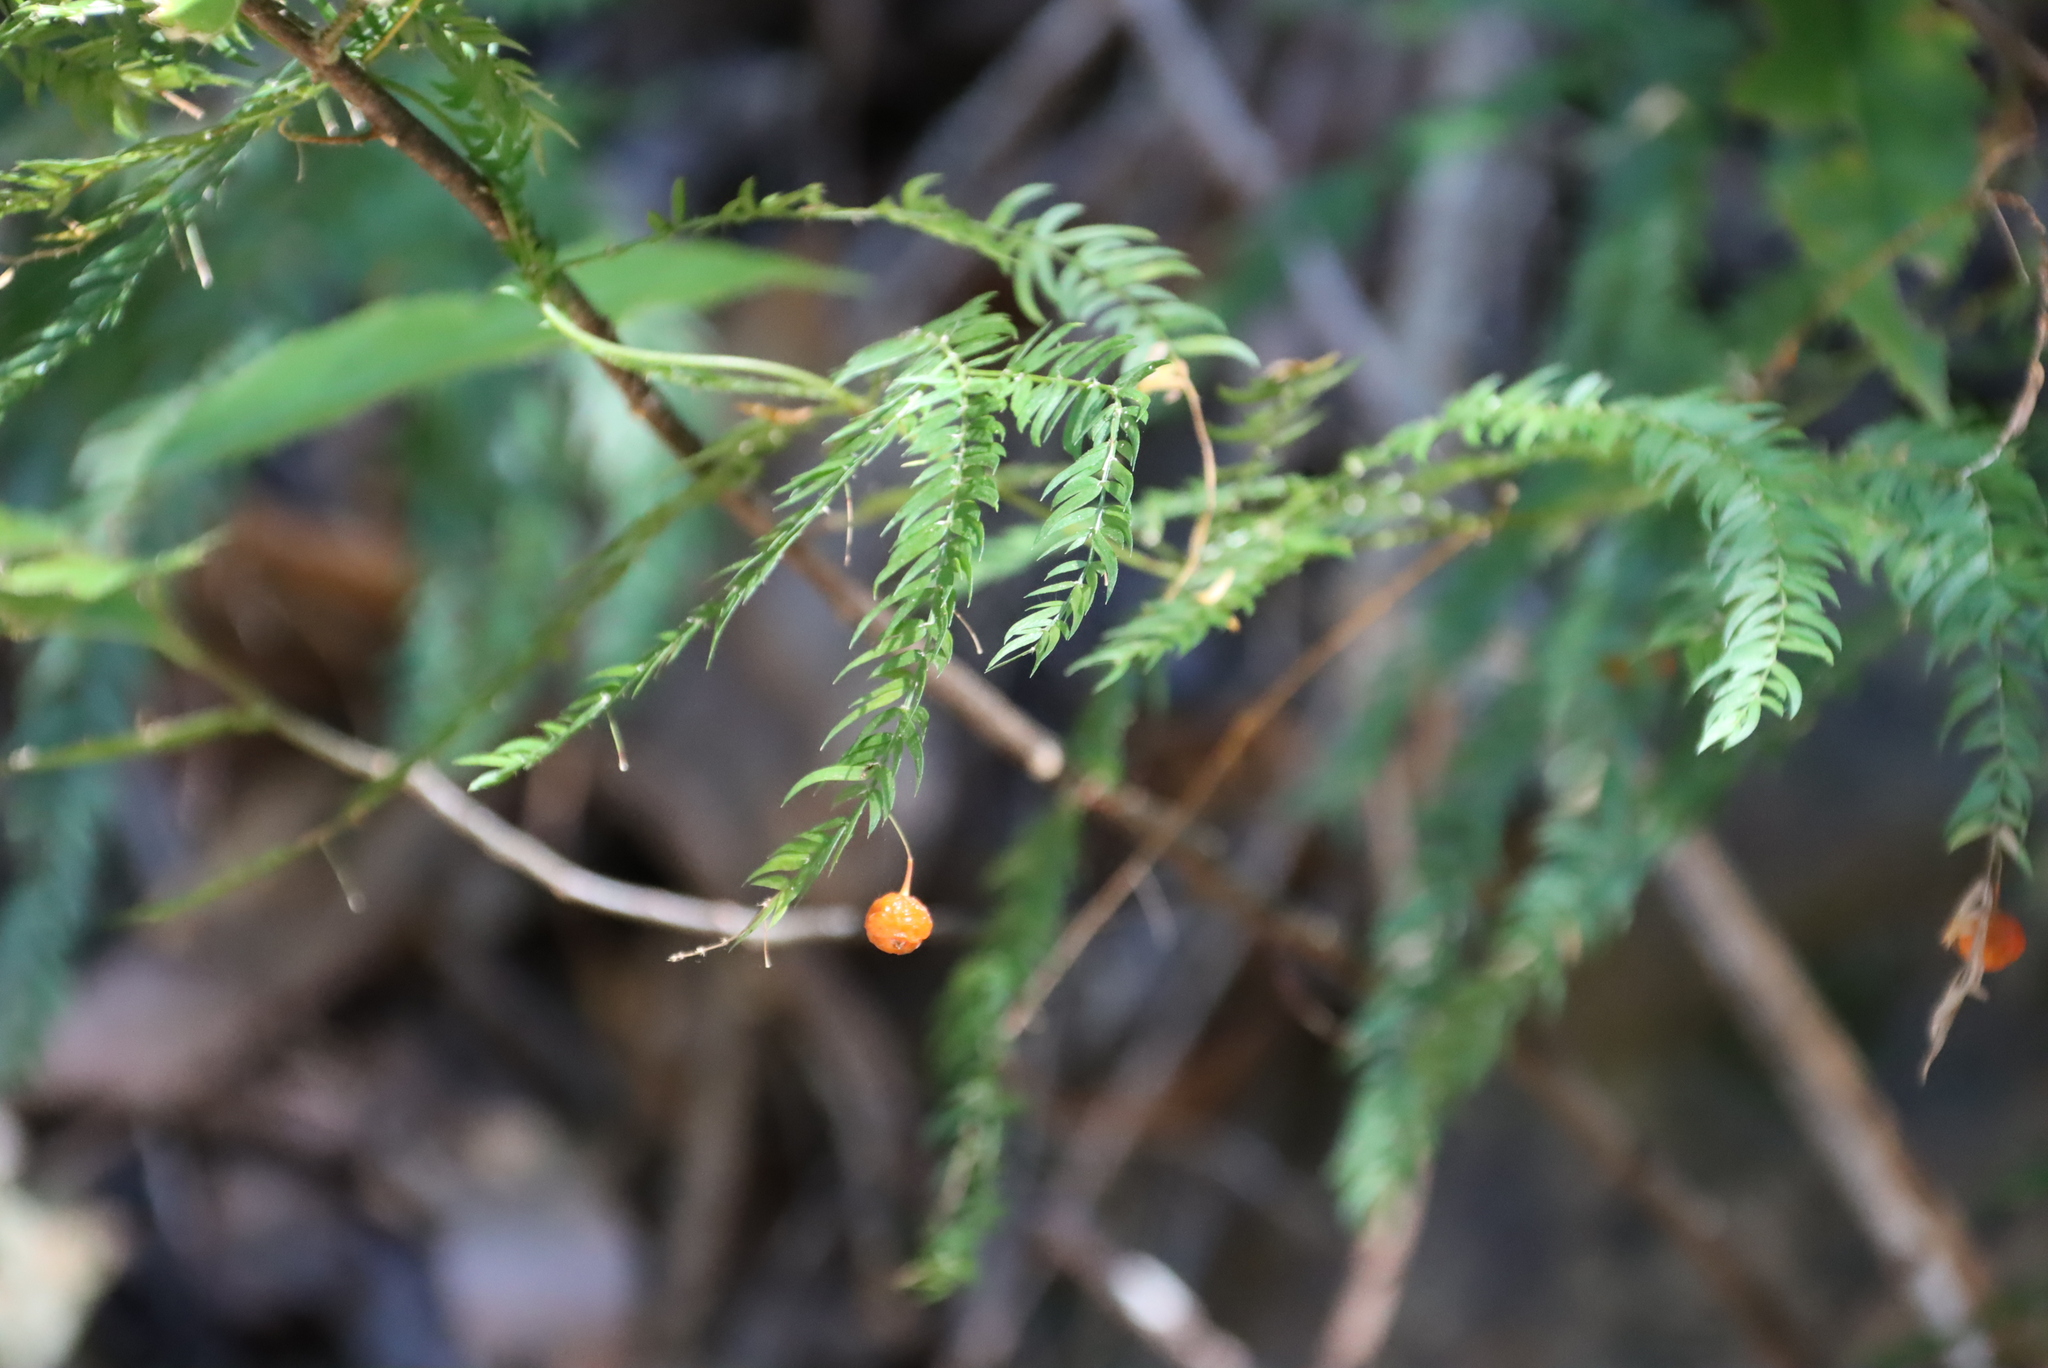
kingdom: Plantae
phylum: Tracheophyta
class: Liliopsida
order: Asparagales
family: Asparagaceae
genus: Asparagus
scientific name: Asparagus scandens
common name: Asparagus-fern
